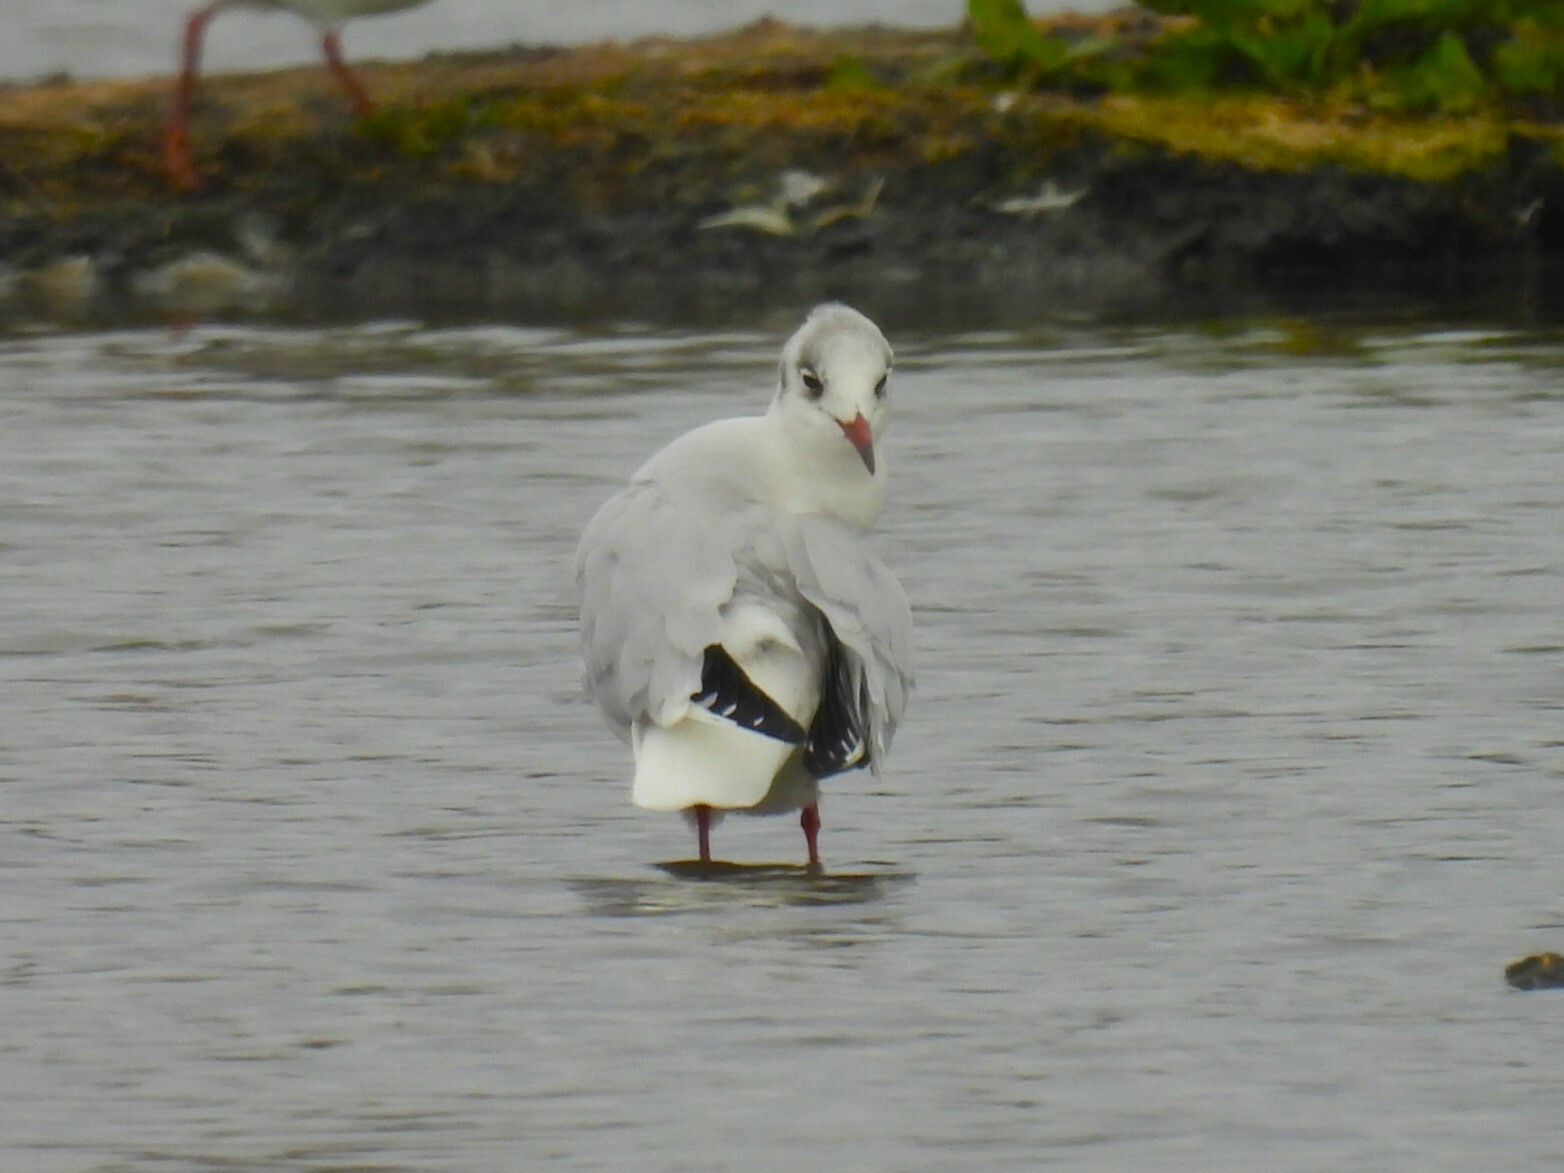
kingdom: Animalia
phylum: Chordata
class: Aves
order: Charadriiformes
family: Laridae
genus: Chroicocephalus
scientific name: Chroicocephalus ridibundus
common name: Black-headed gull
